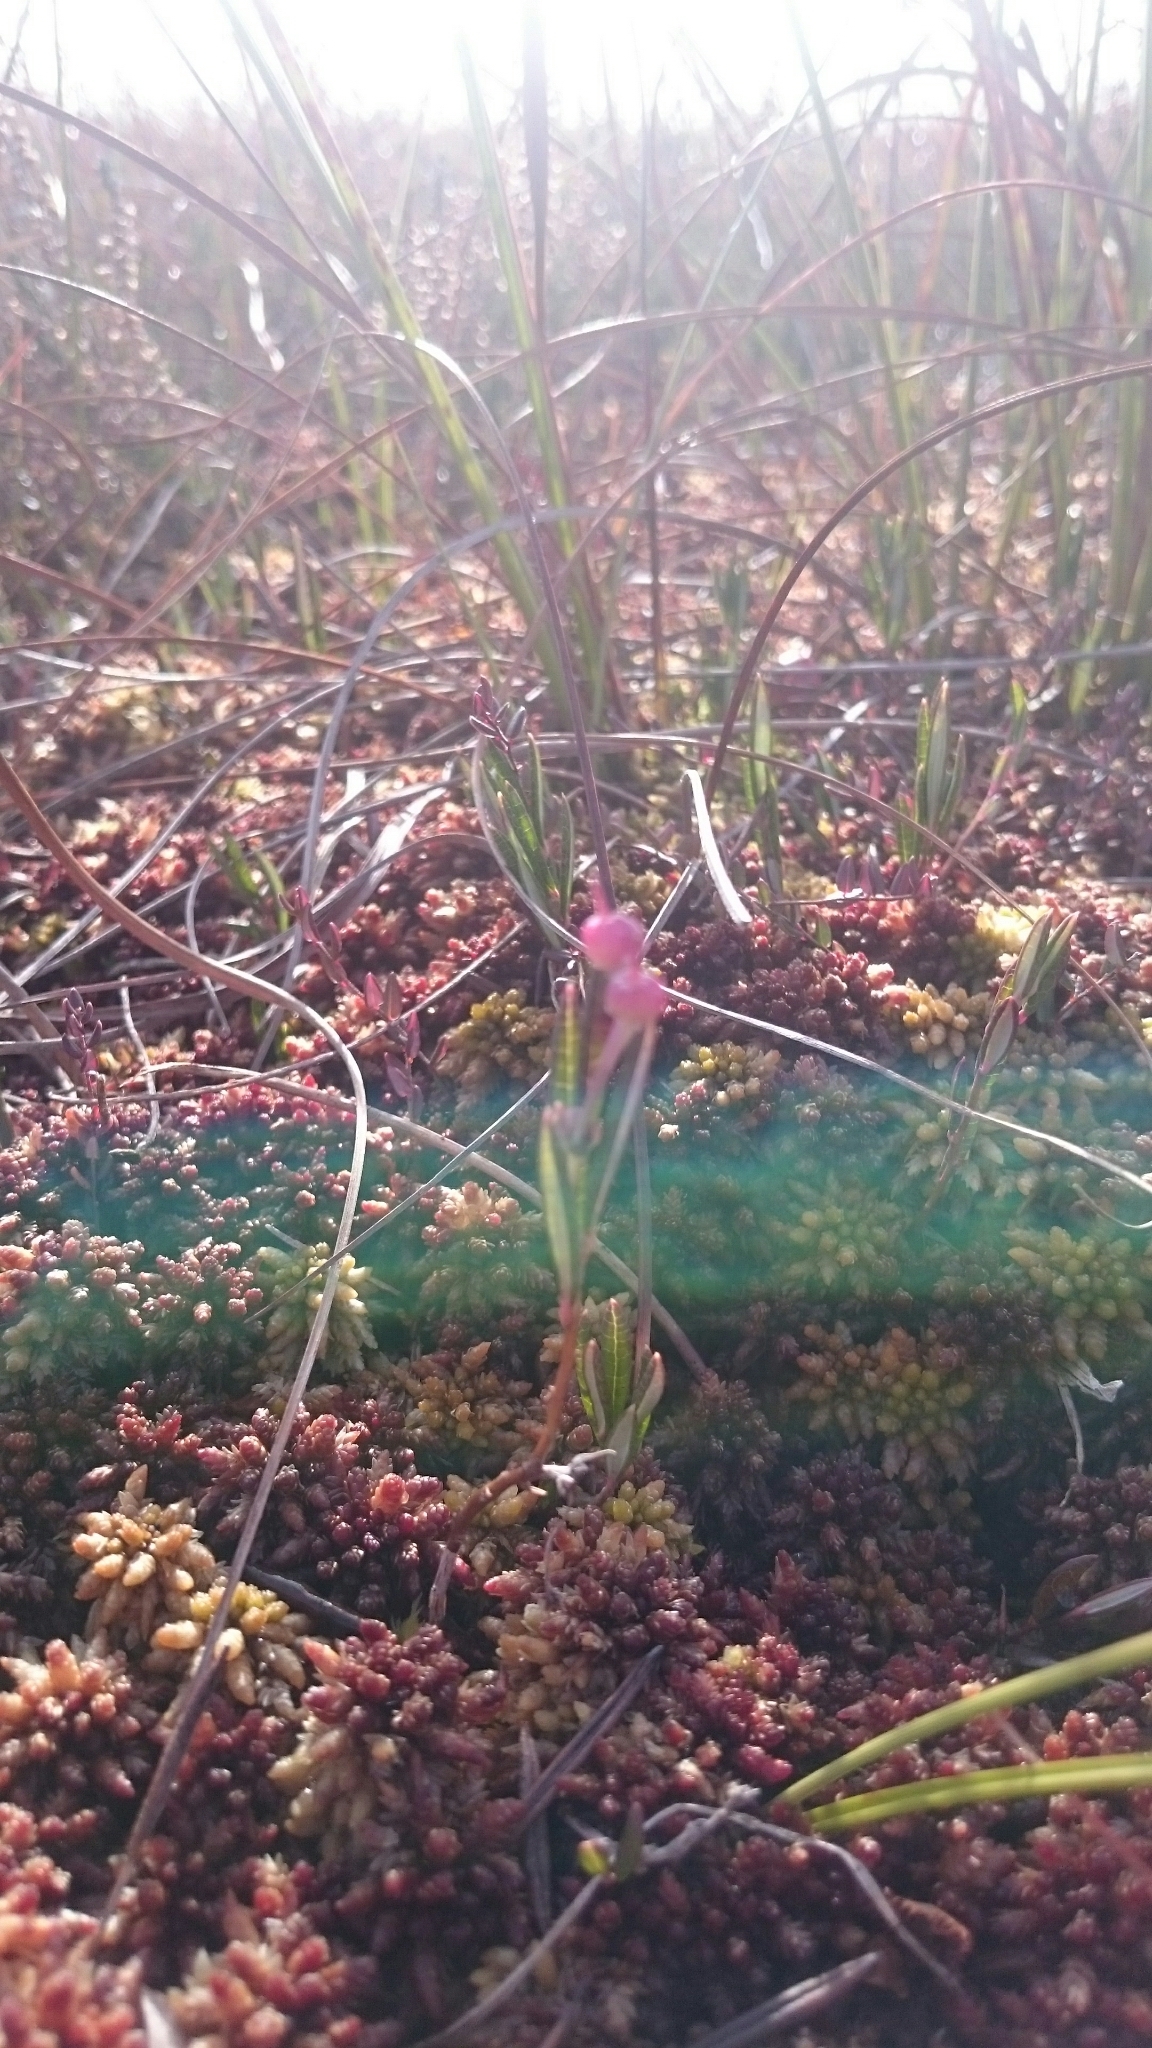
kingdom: Plantae
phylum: Tracheophyta
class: Magnoliopsida
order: Ericales
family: Ericaceae
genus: Andromeda
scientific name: Andromeda polifolia
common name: Bog-rosemary
